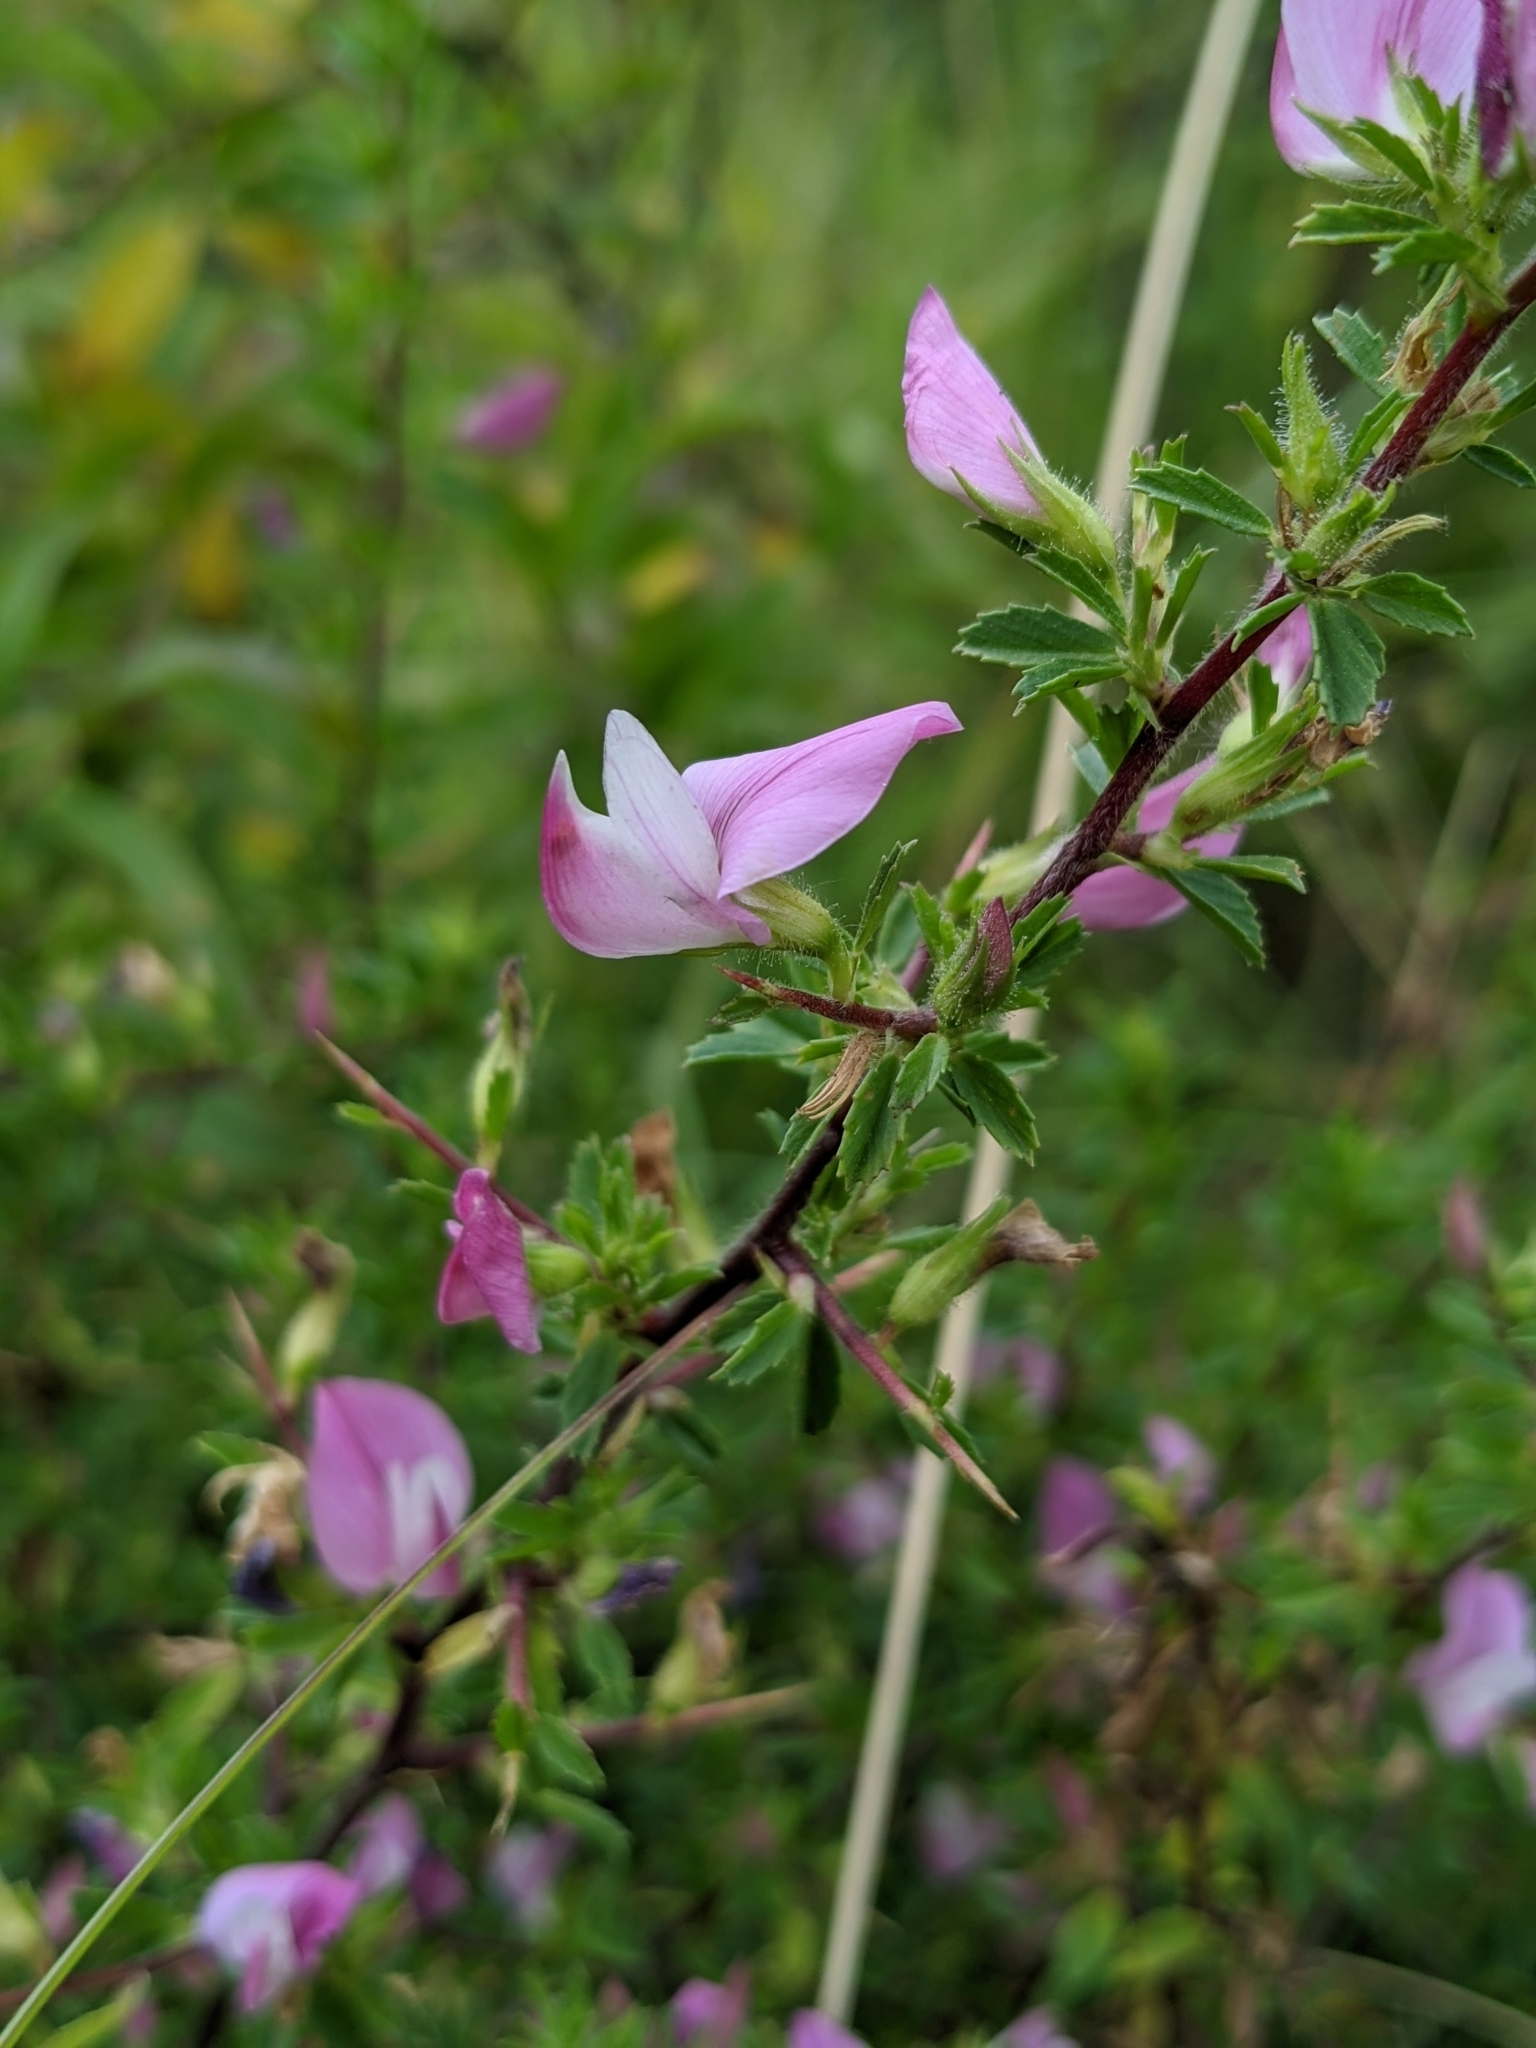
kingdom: Plantae
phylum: Tracheophyta
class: Magnoliopsida
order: Fabales
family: Fabaceae
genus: Ononis
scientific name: Ononis spinosa
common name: Spiny restharrow
